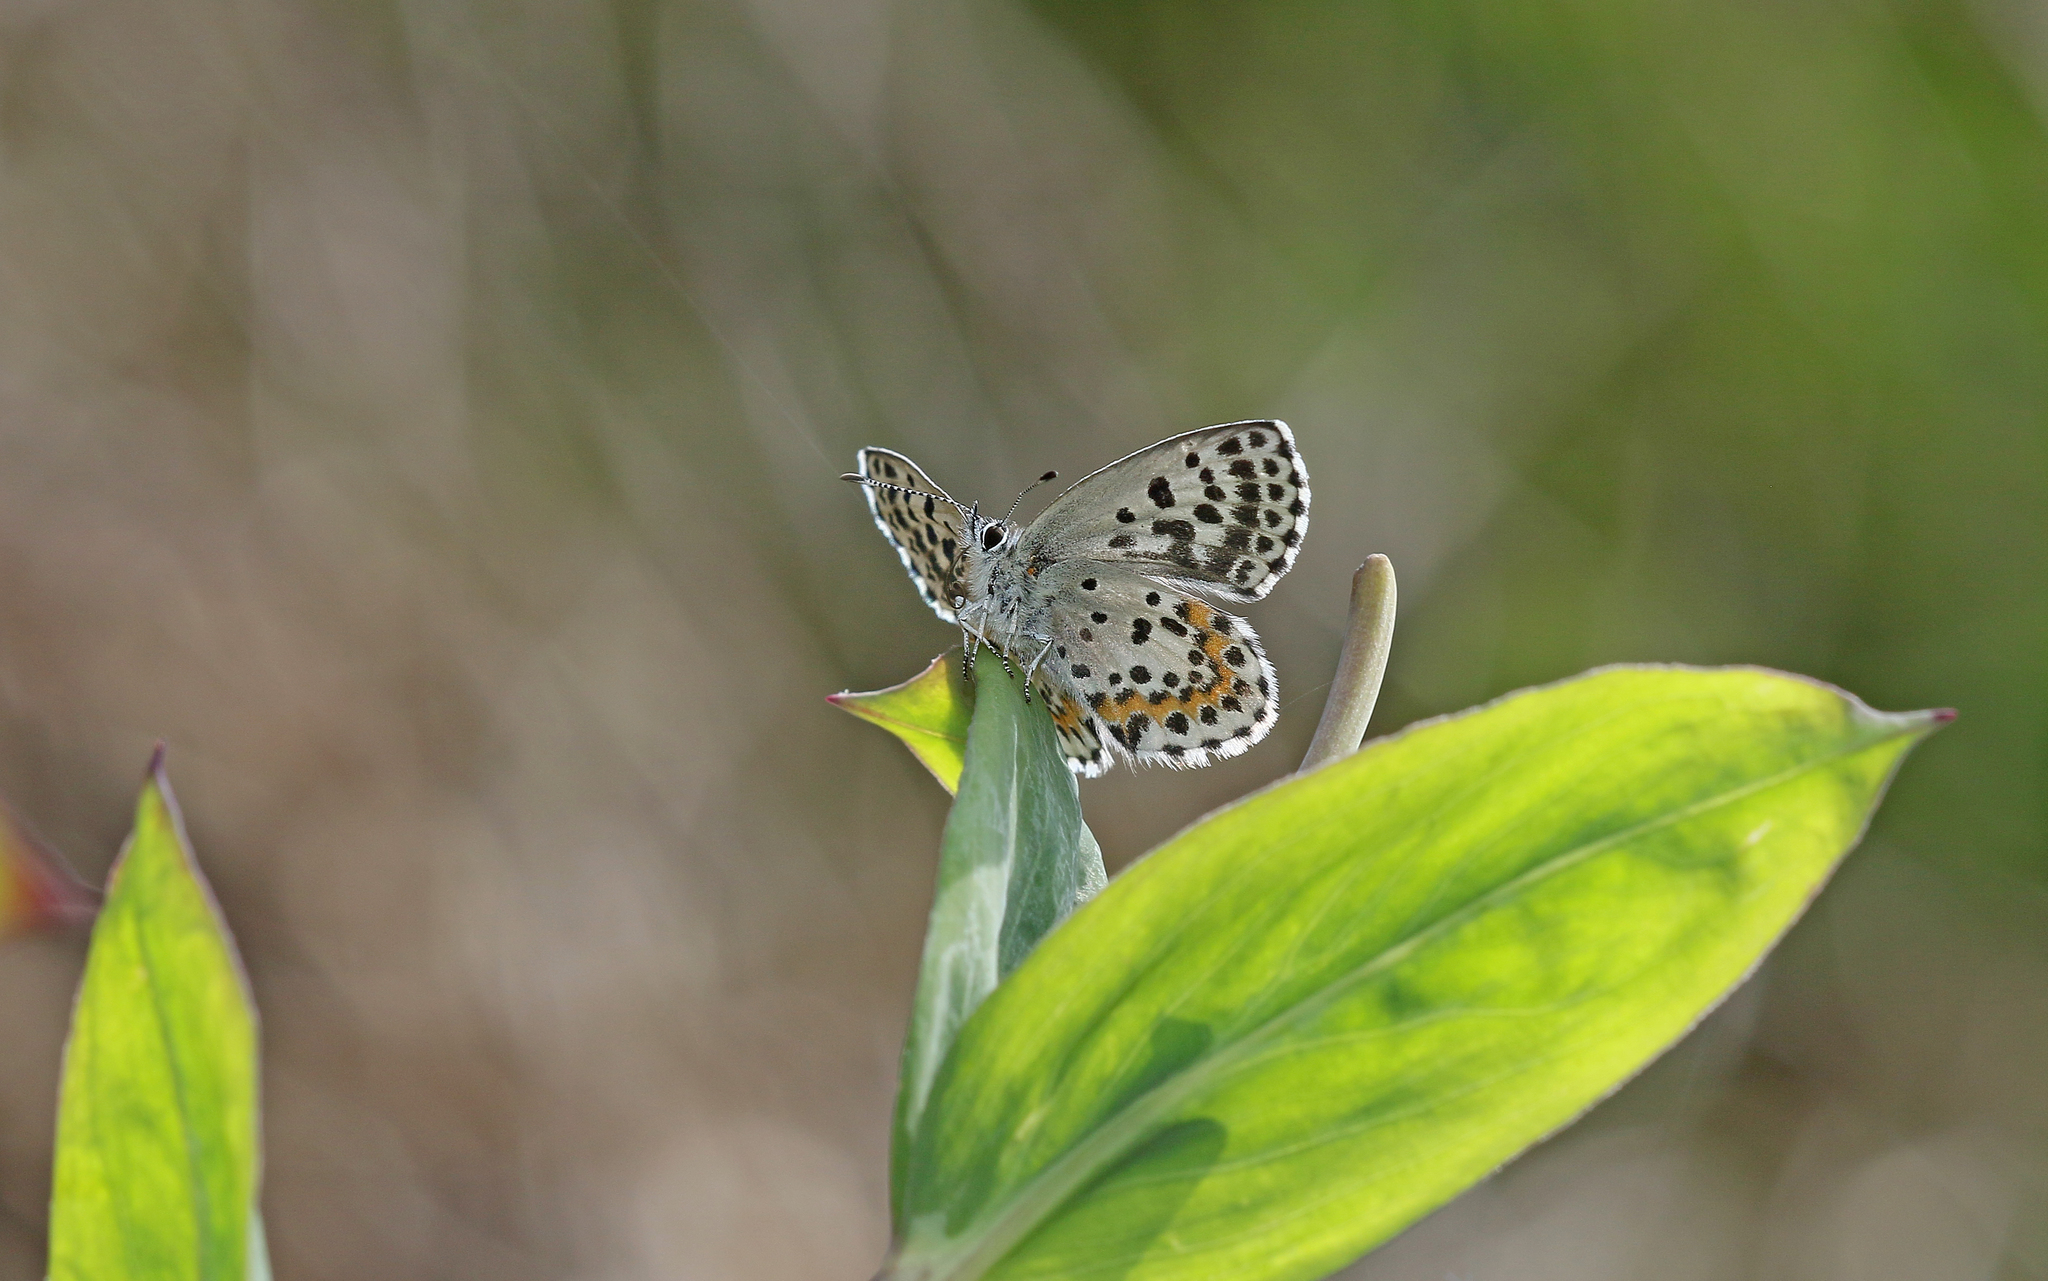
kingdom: Animalia
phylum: Arthropoda
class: Insecta
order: Lepidoptera
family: Lycaenidae
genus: Scolitantides
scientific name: Scolitantides orion
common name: Chequered blue
